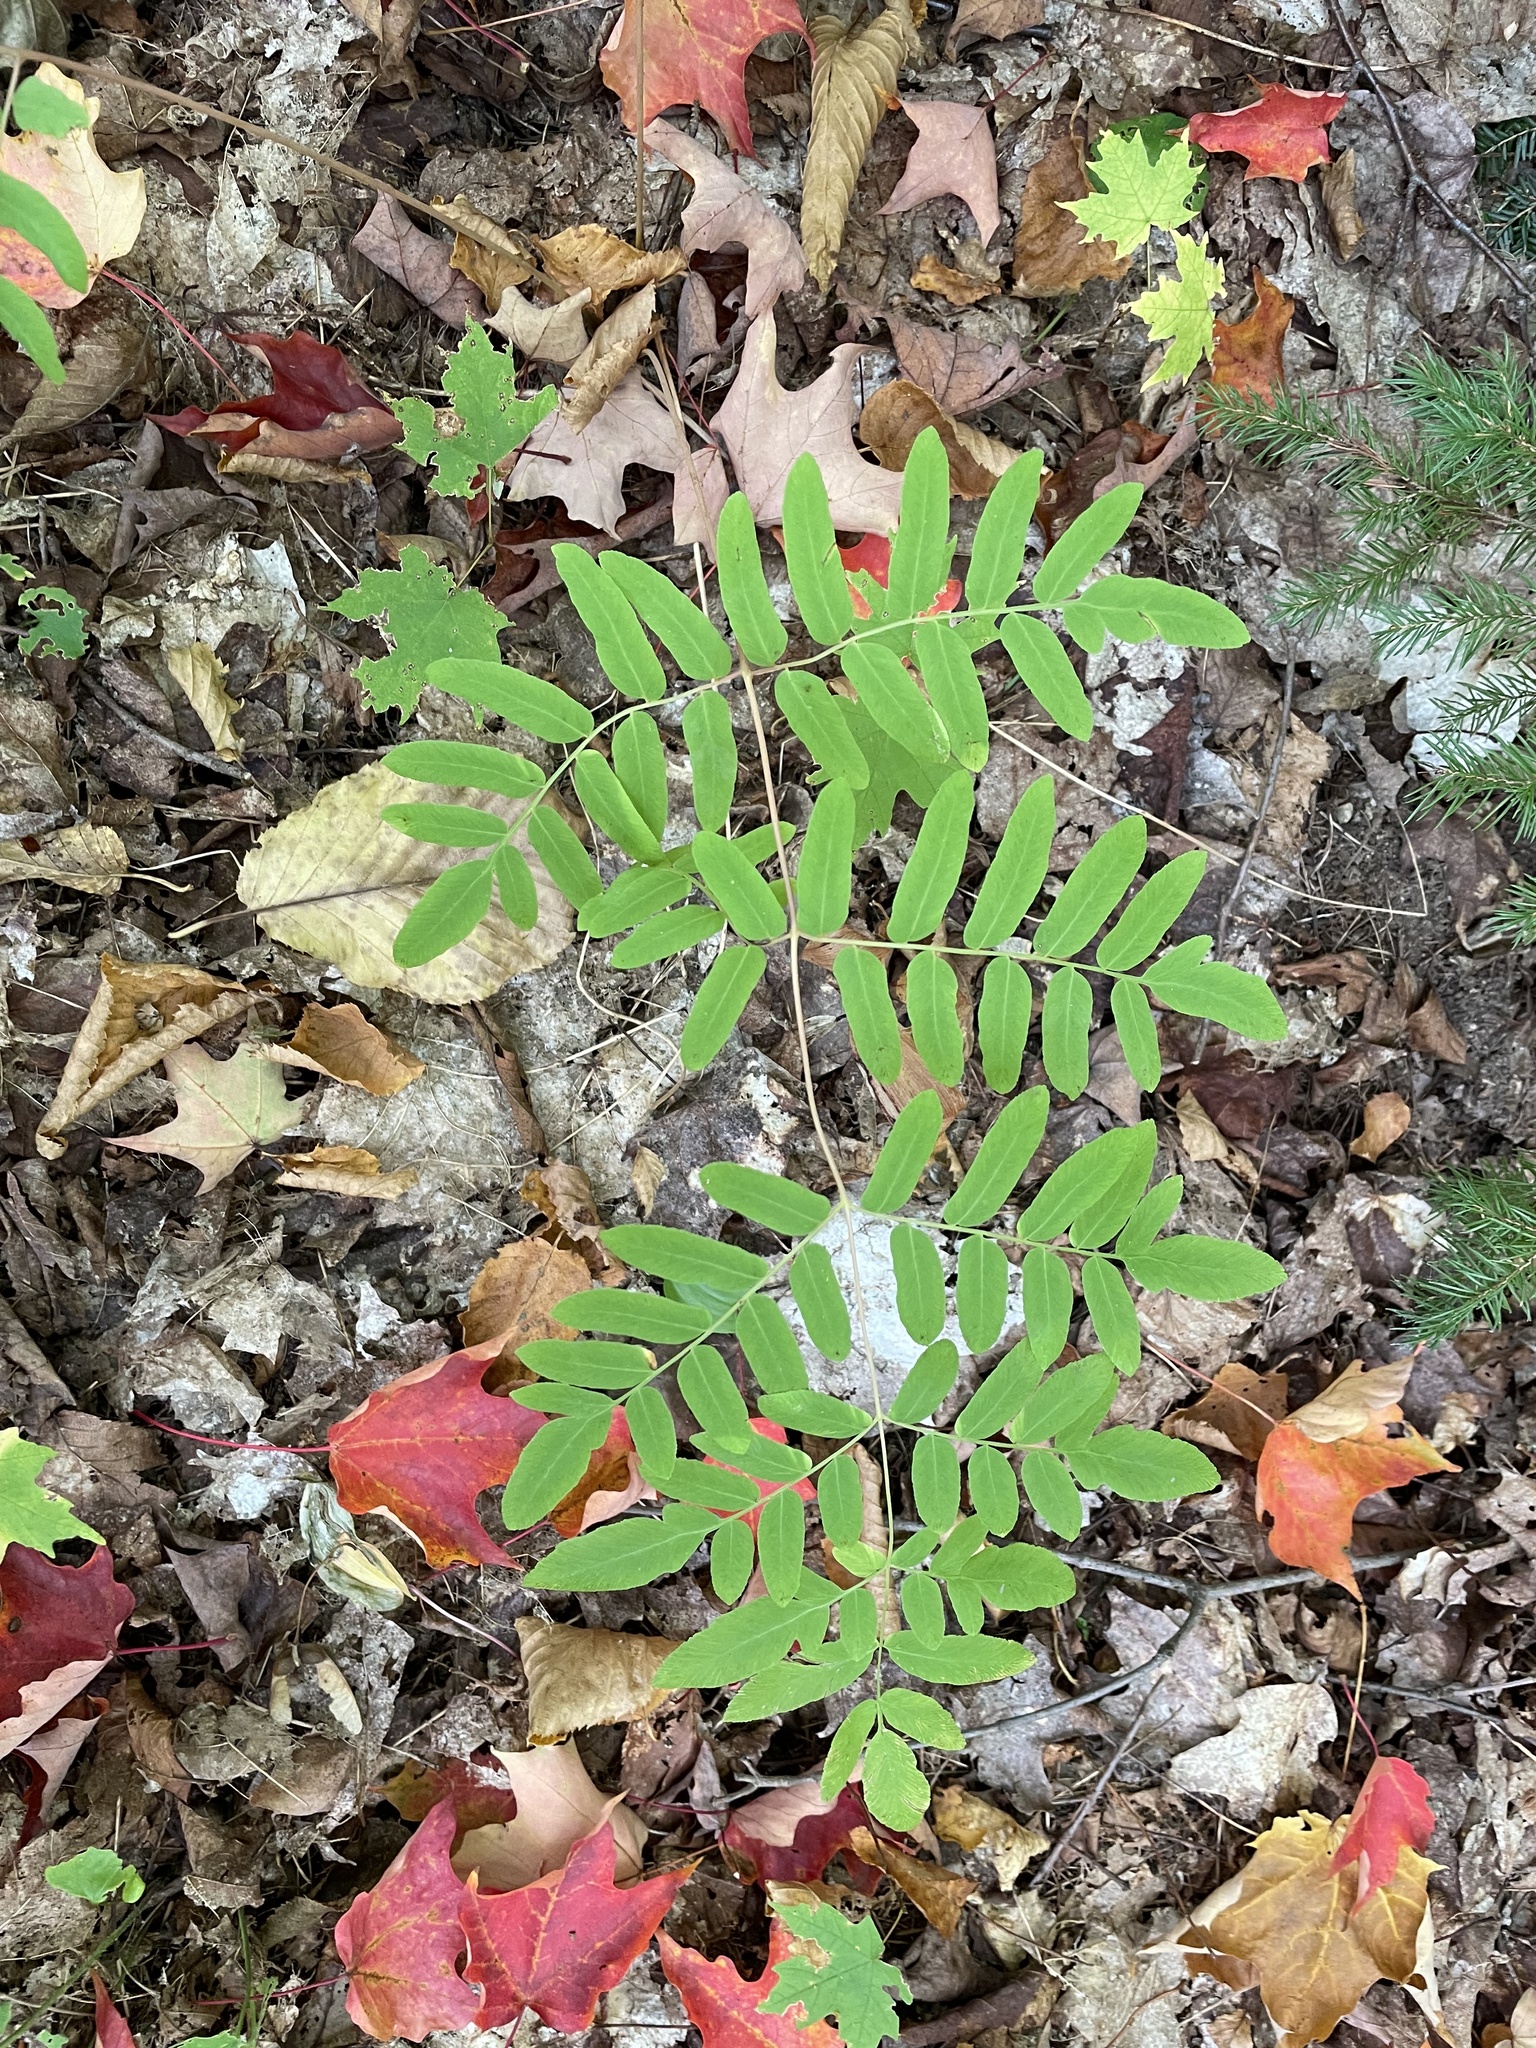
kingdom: Plantae
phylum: Tracheophyta
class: Polypodiopsida
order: Osmundales
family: Osmundaceae
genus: Osmunda
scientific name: Osmunda spectabilis
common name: American royal fern
